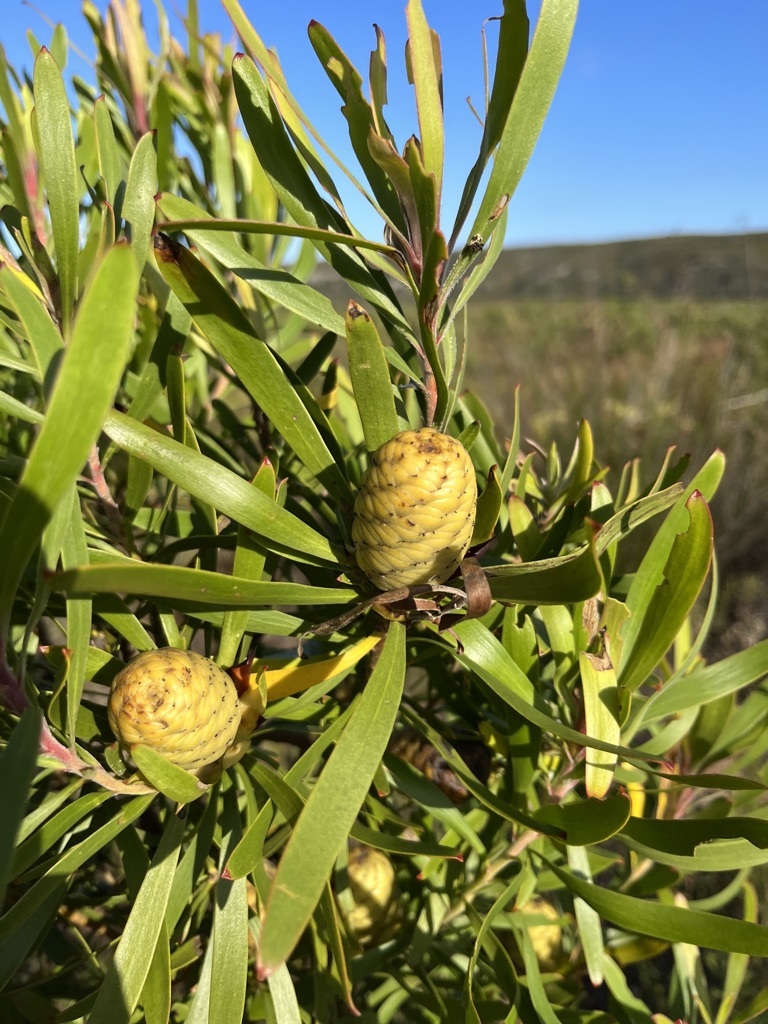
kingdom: Plantae
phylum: Tracheophyta
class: Magnoliopsida
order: Proteales
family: Proteaceae
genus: Leucadendron
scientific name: Leucadendron eucalyptifolium
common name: Gum-leaved conebush
